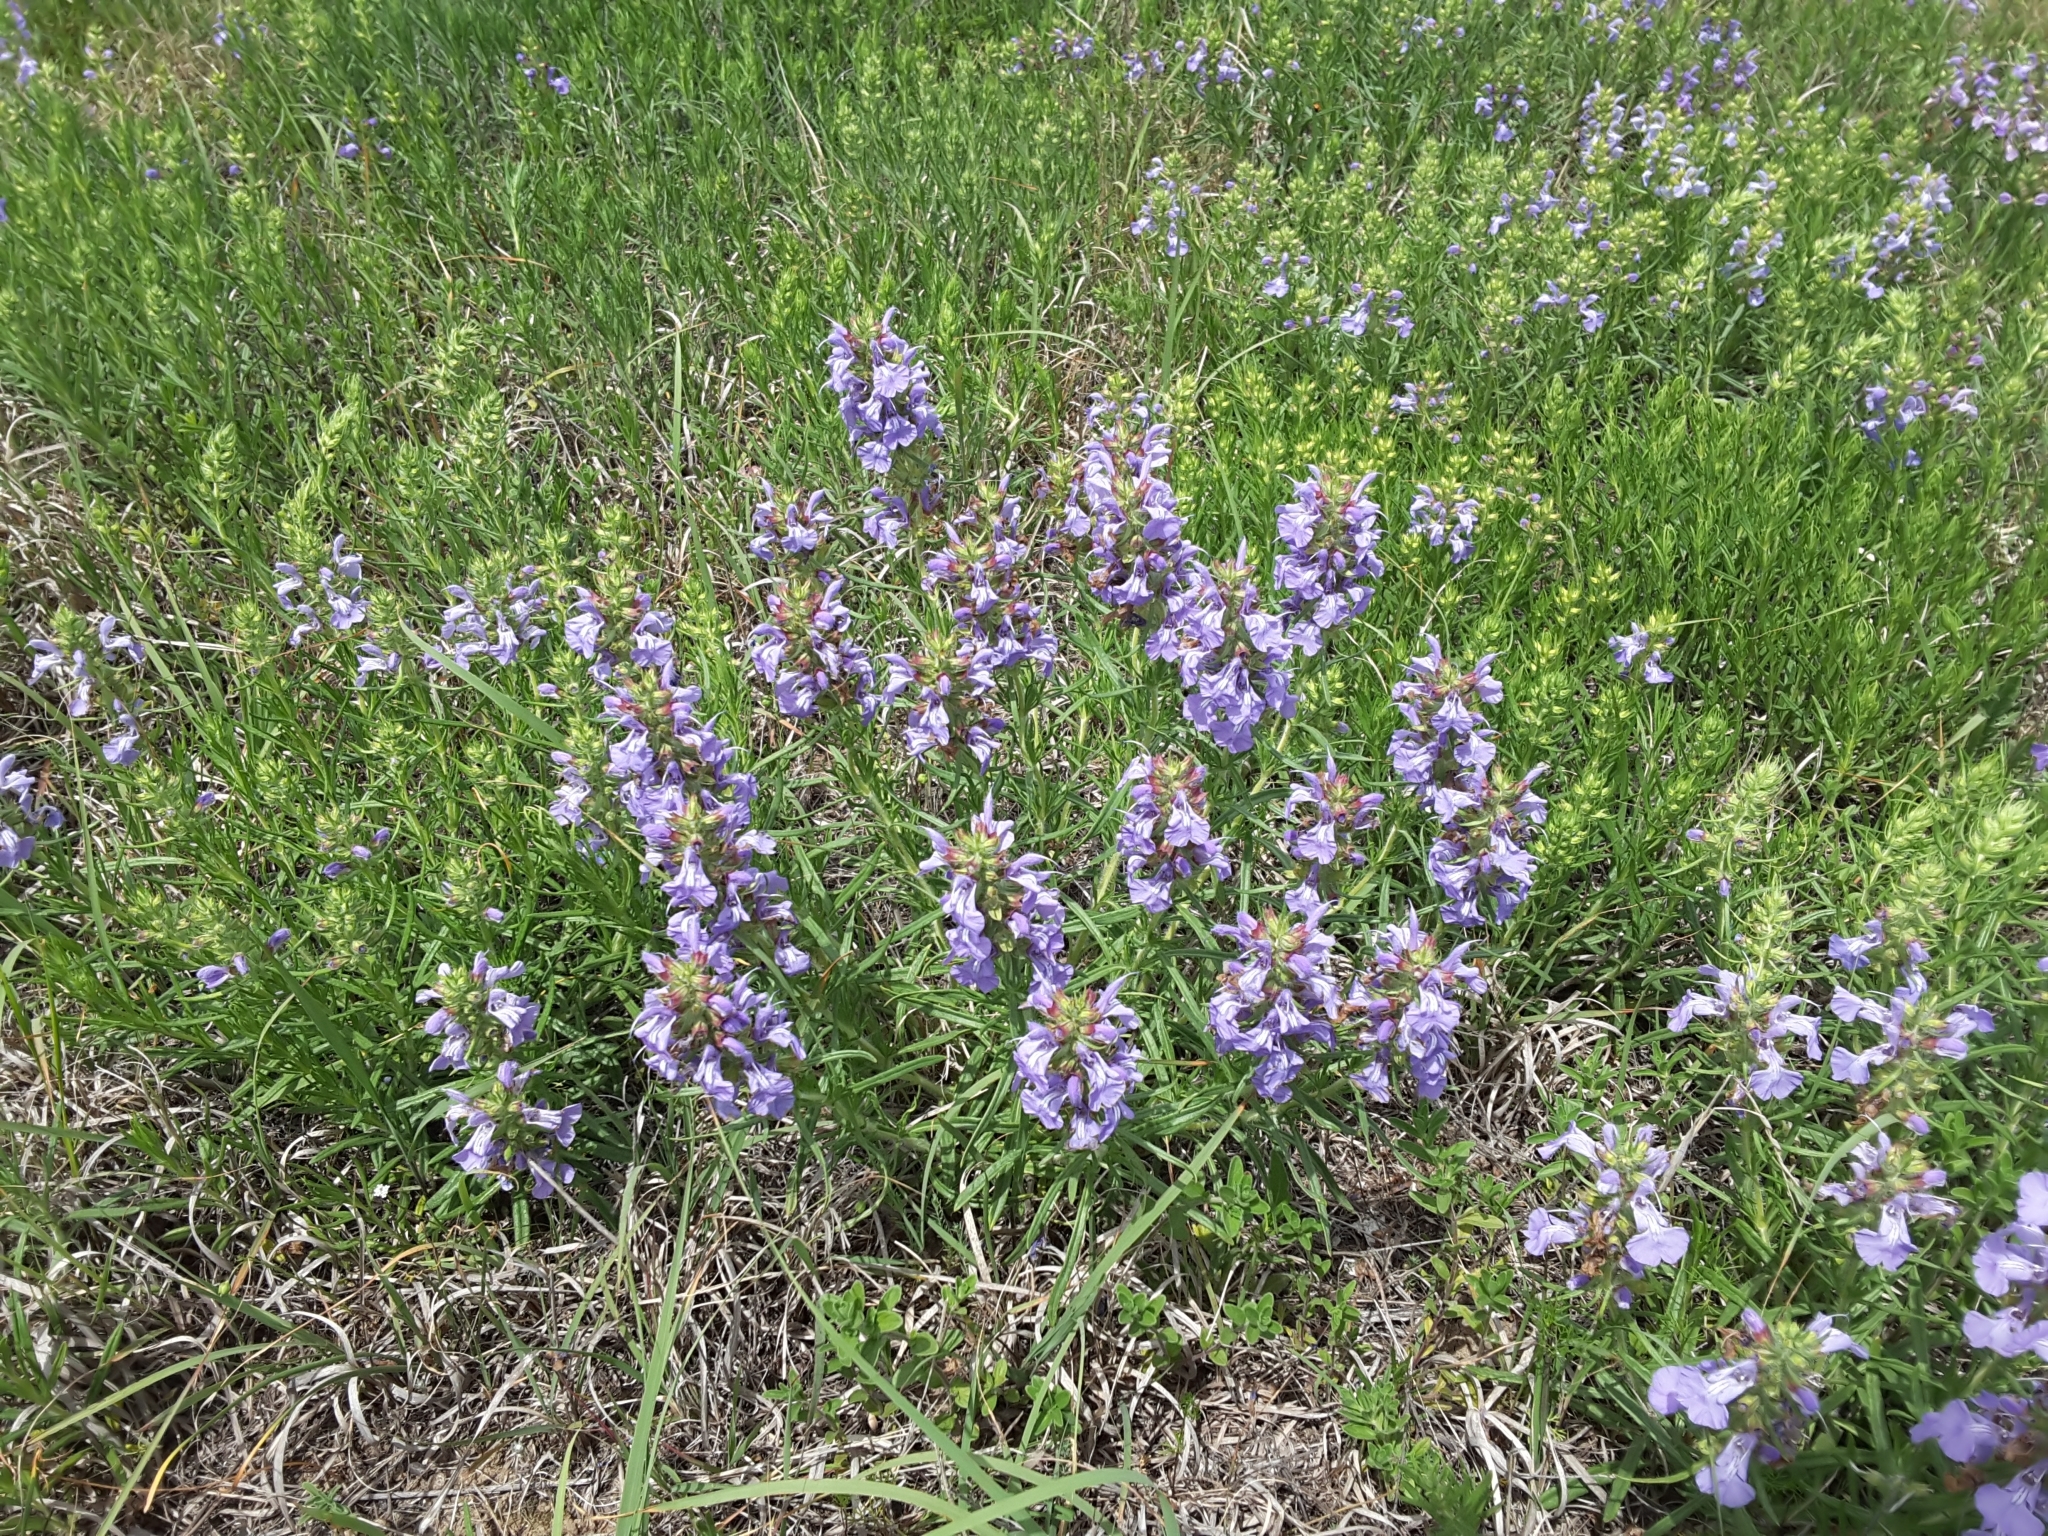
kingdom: Plantae
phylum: Tracheophyta
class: Magnoliopsida
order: Lamiales
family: Lamiaceae
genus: Salvia
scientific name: Salvia engelmannii
